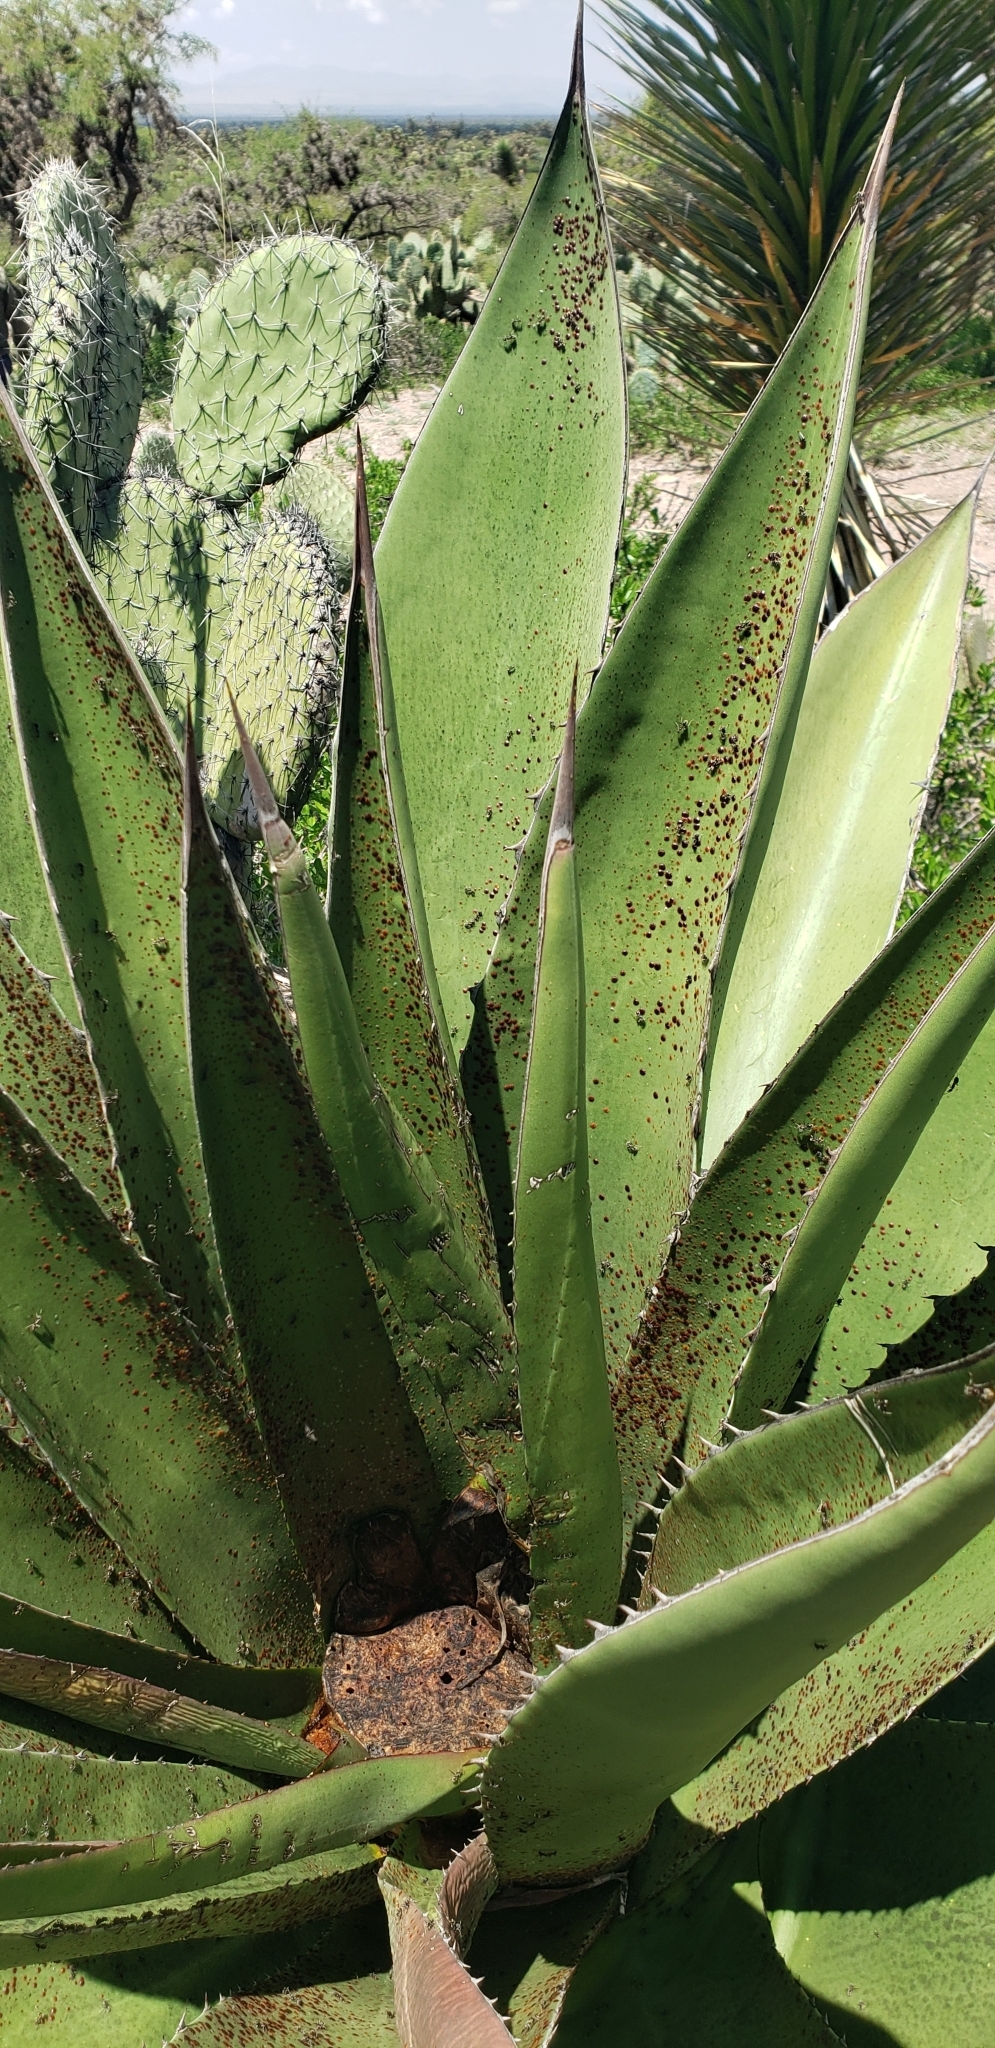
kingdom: Animalia
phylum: Arthropoda
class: Insecta
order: Hymenoptera
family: Formicidae
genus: Liometopum
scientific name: Liometopum apiculatum
